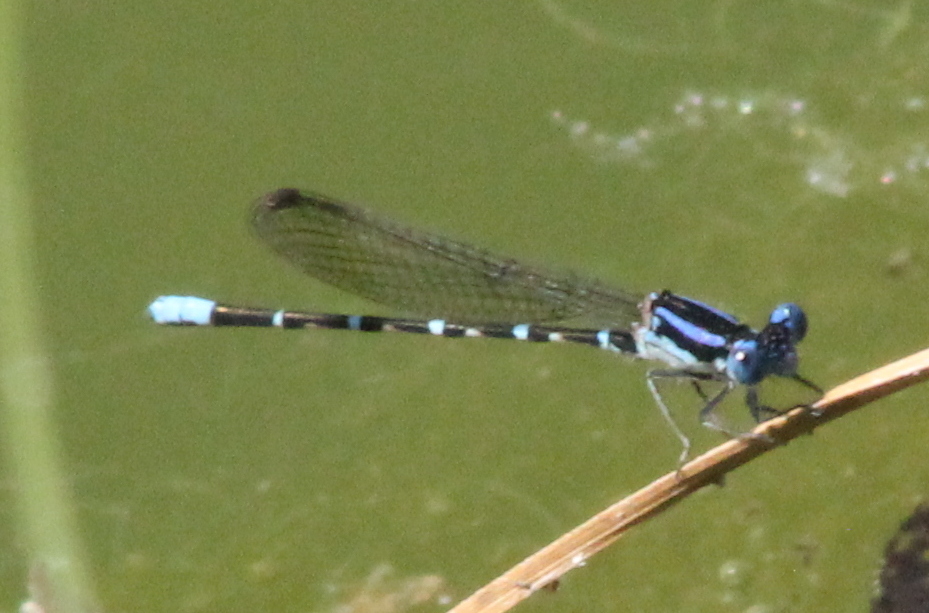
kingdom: Animalia
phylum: Arthropoda
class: Insecta
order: Odonata
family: Coenagrionidae
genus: Argia
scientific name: Argia sedula
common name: Blue-ringed dancer
